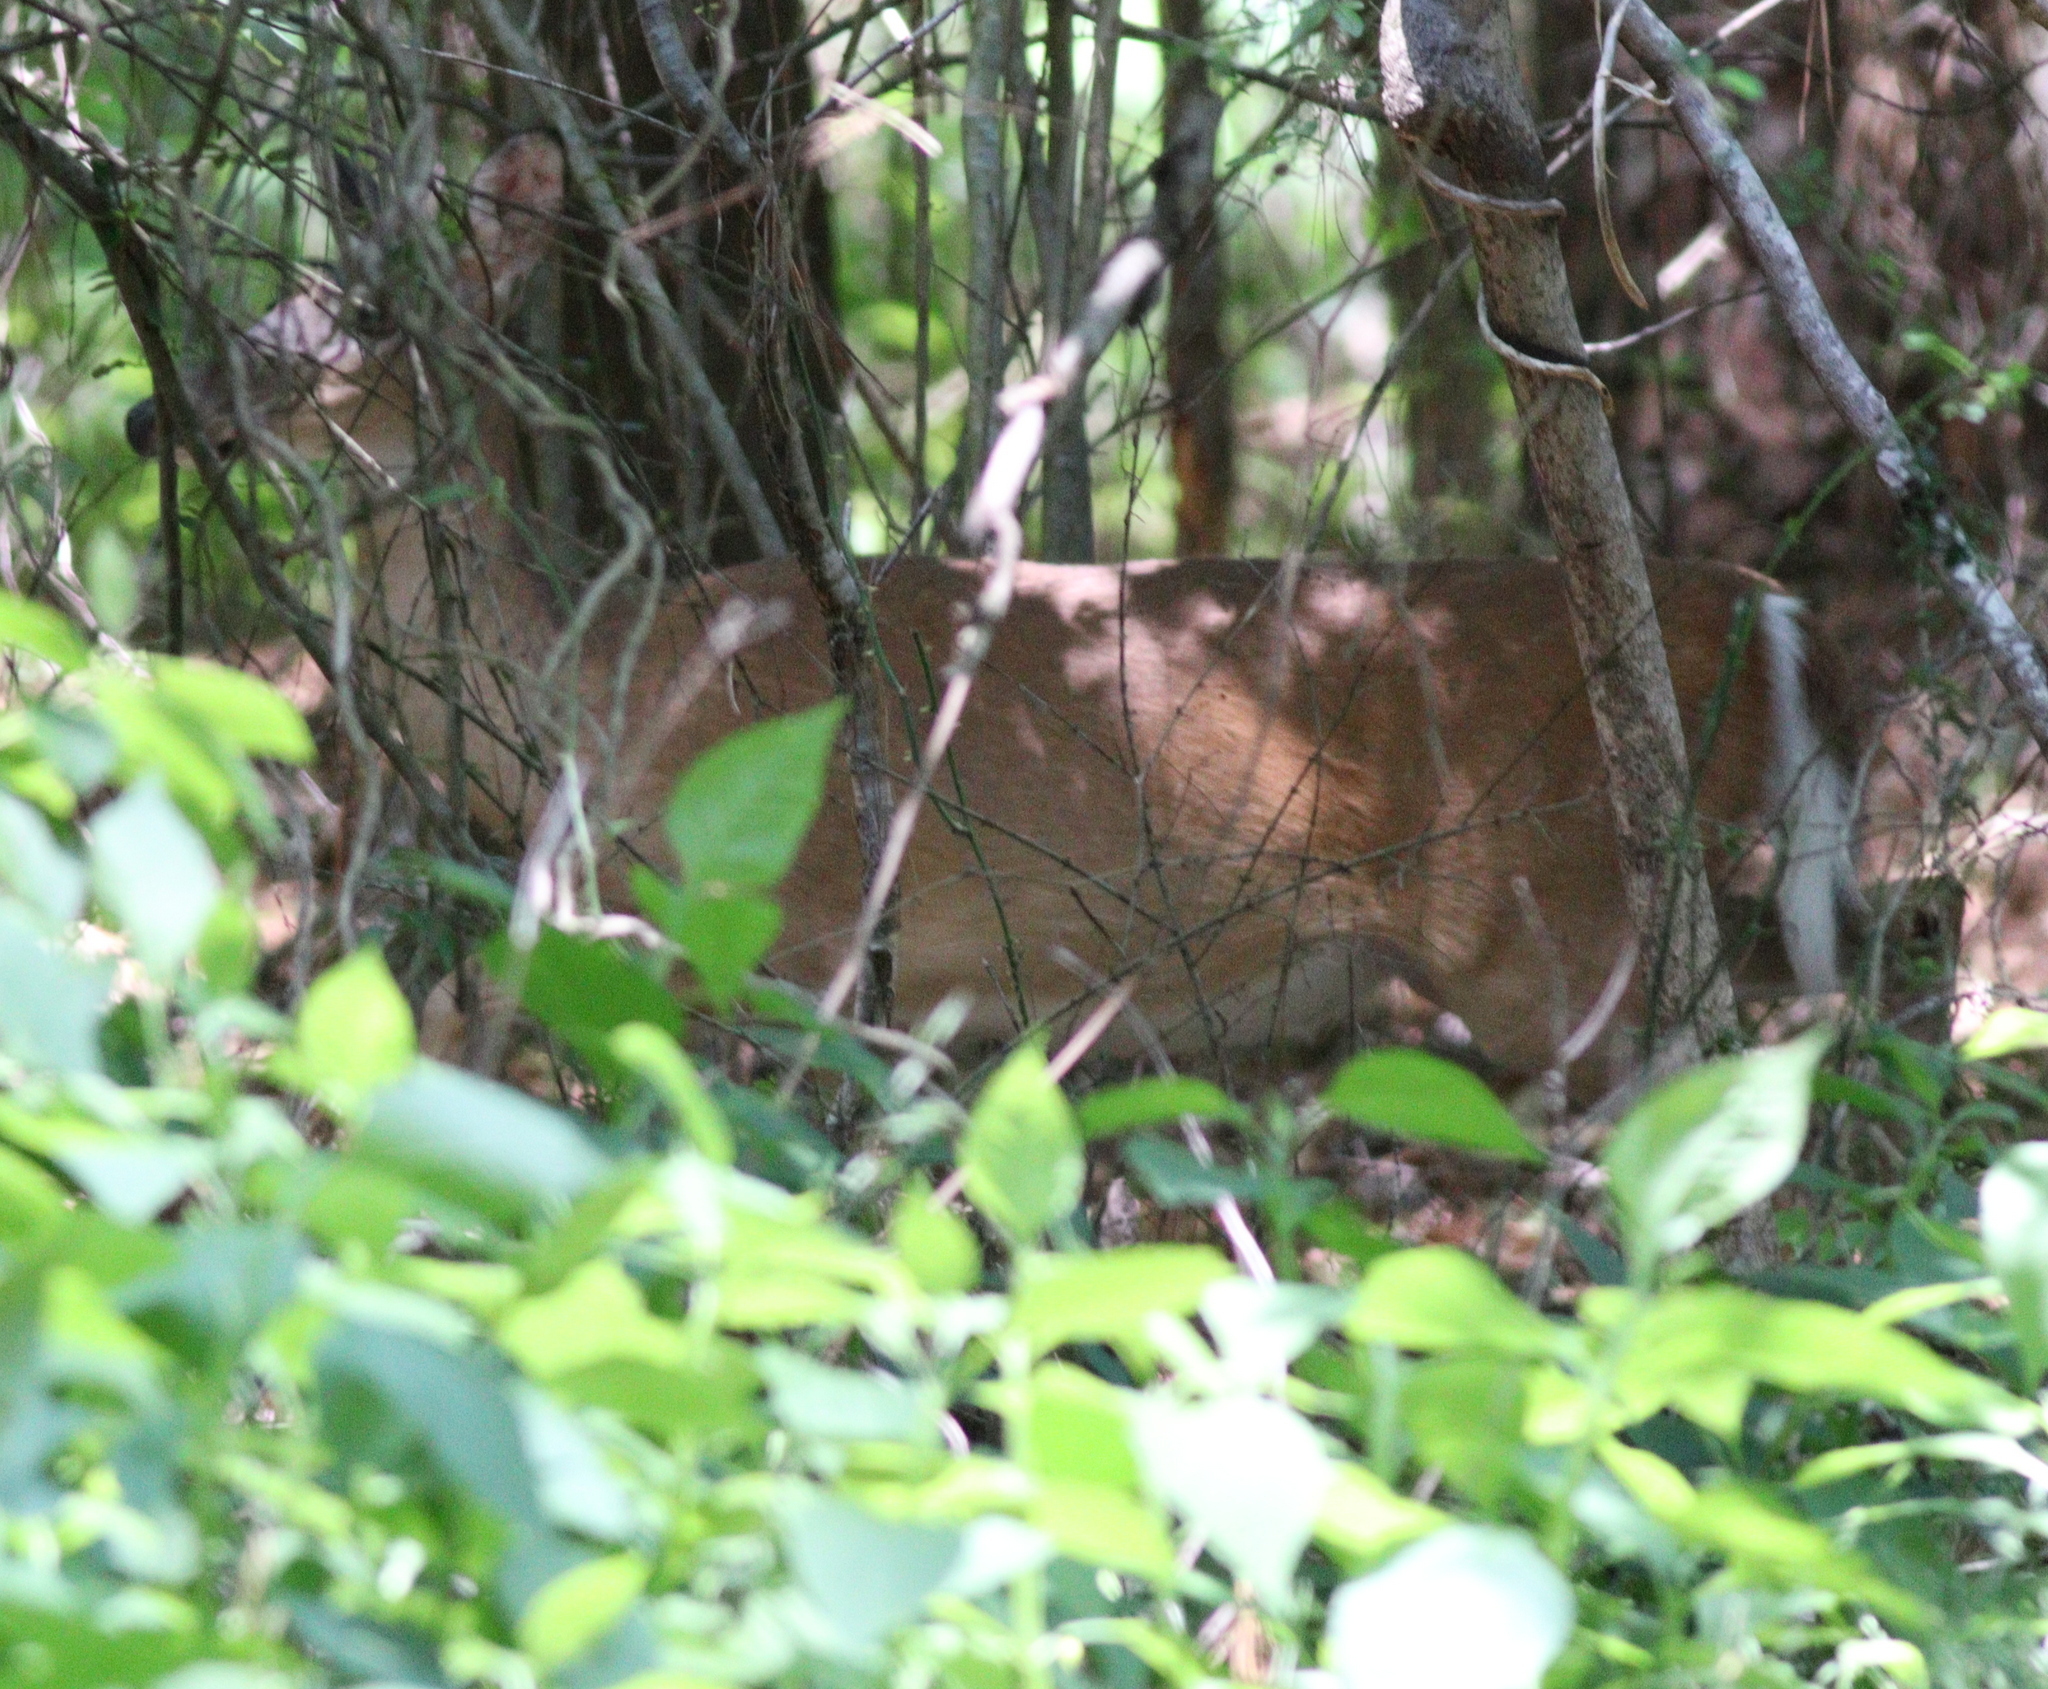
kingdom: Animalia
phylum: Chordata
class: Mammalia
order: Artiodactyla
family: Cervidae
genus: Odocoileus
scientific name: Odocoileus virginianus
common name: White-tailed deer
